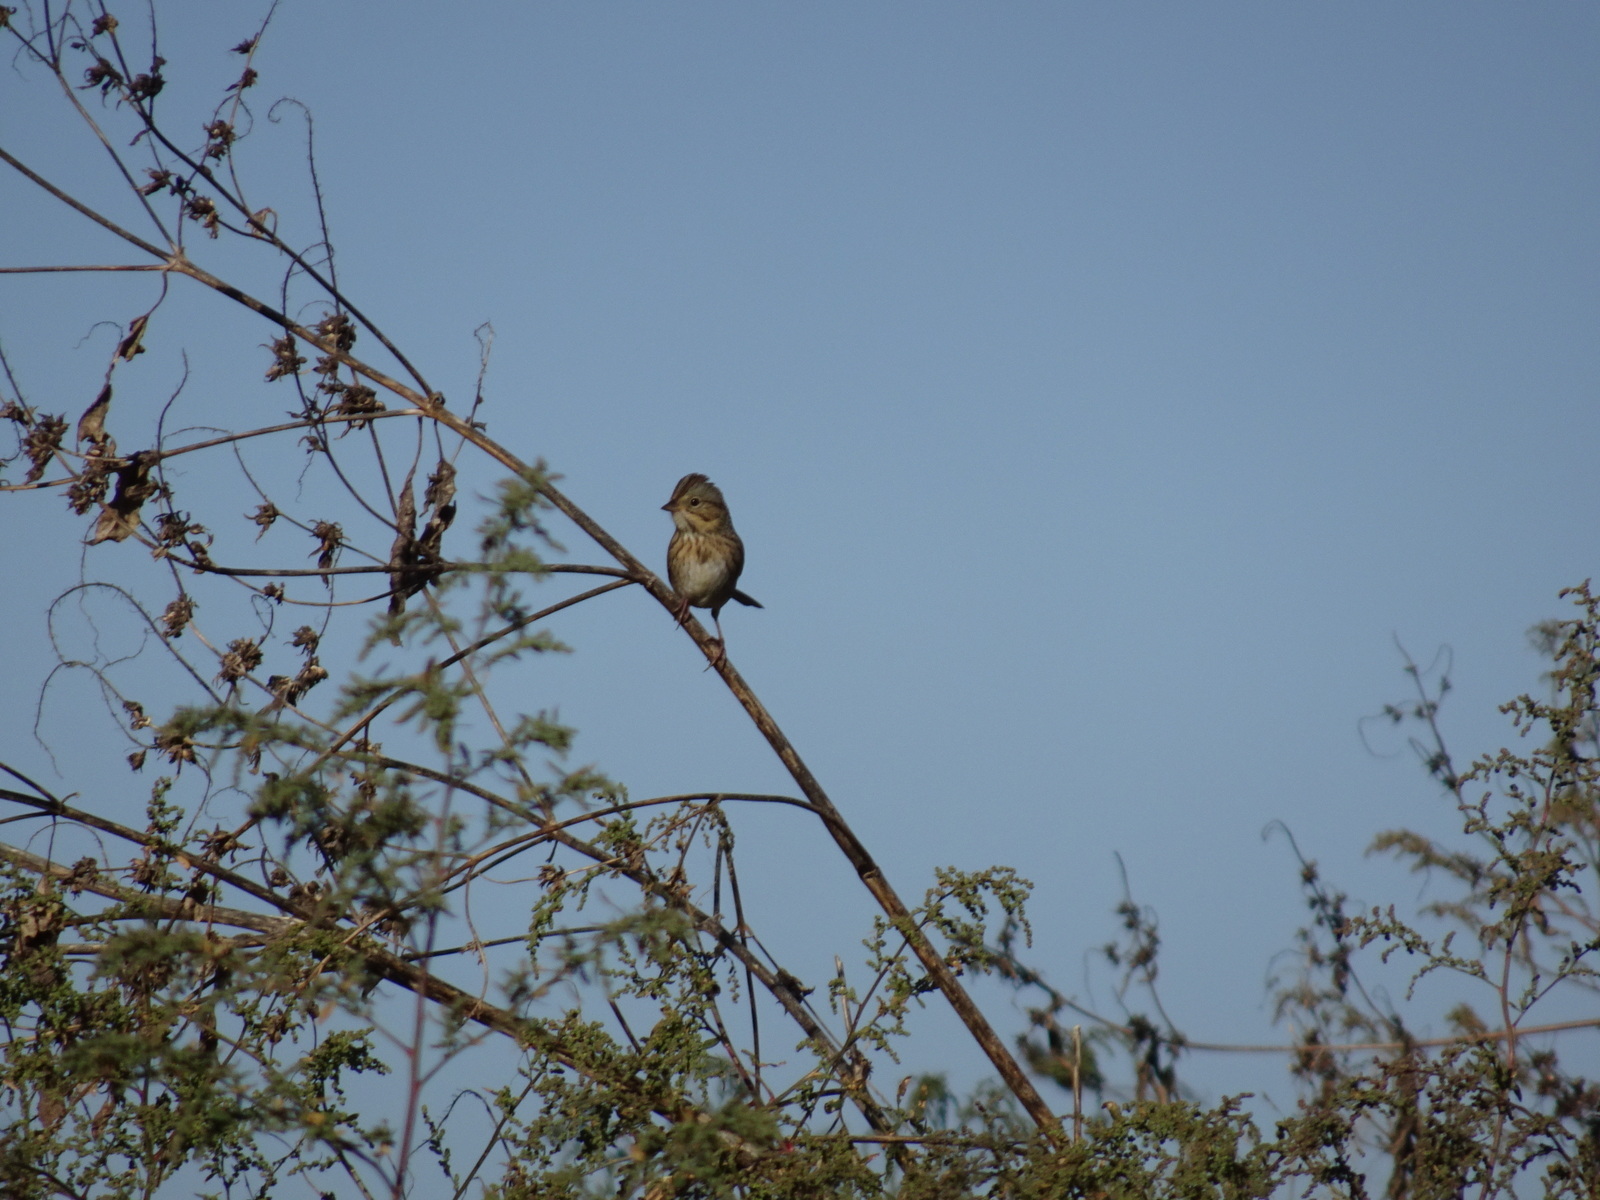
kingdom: Animalia
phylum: Chordata
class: Aves
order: Passeriformes
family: Passerellidae
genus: Melospiza
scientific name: Melospiza lincolnii
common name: Lincoln's sparrow
